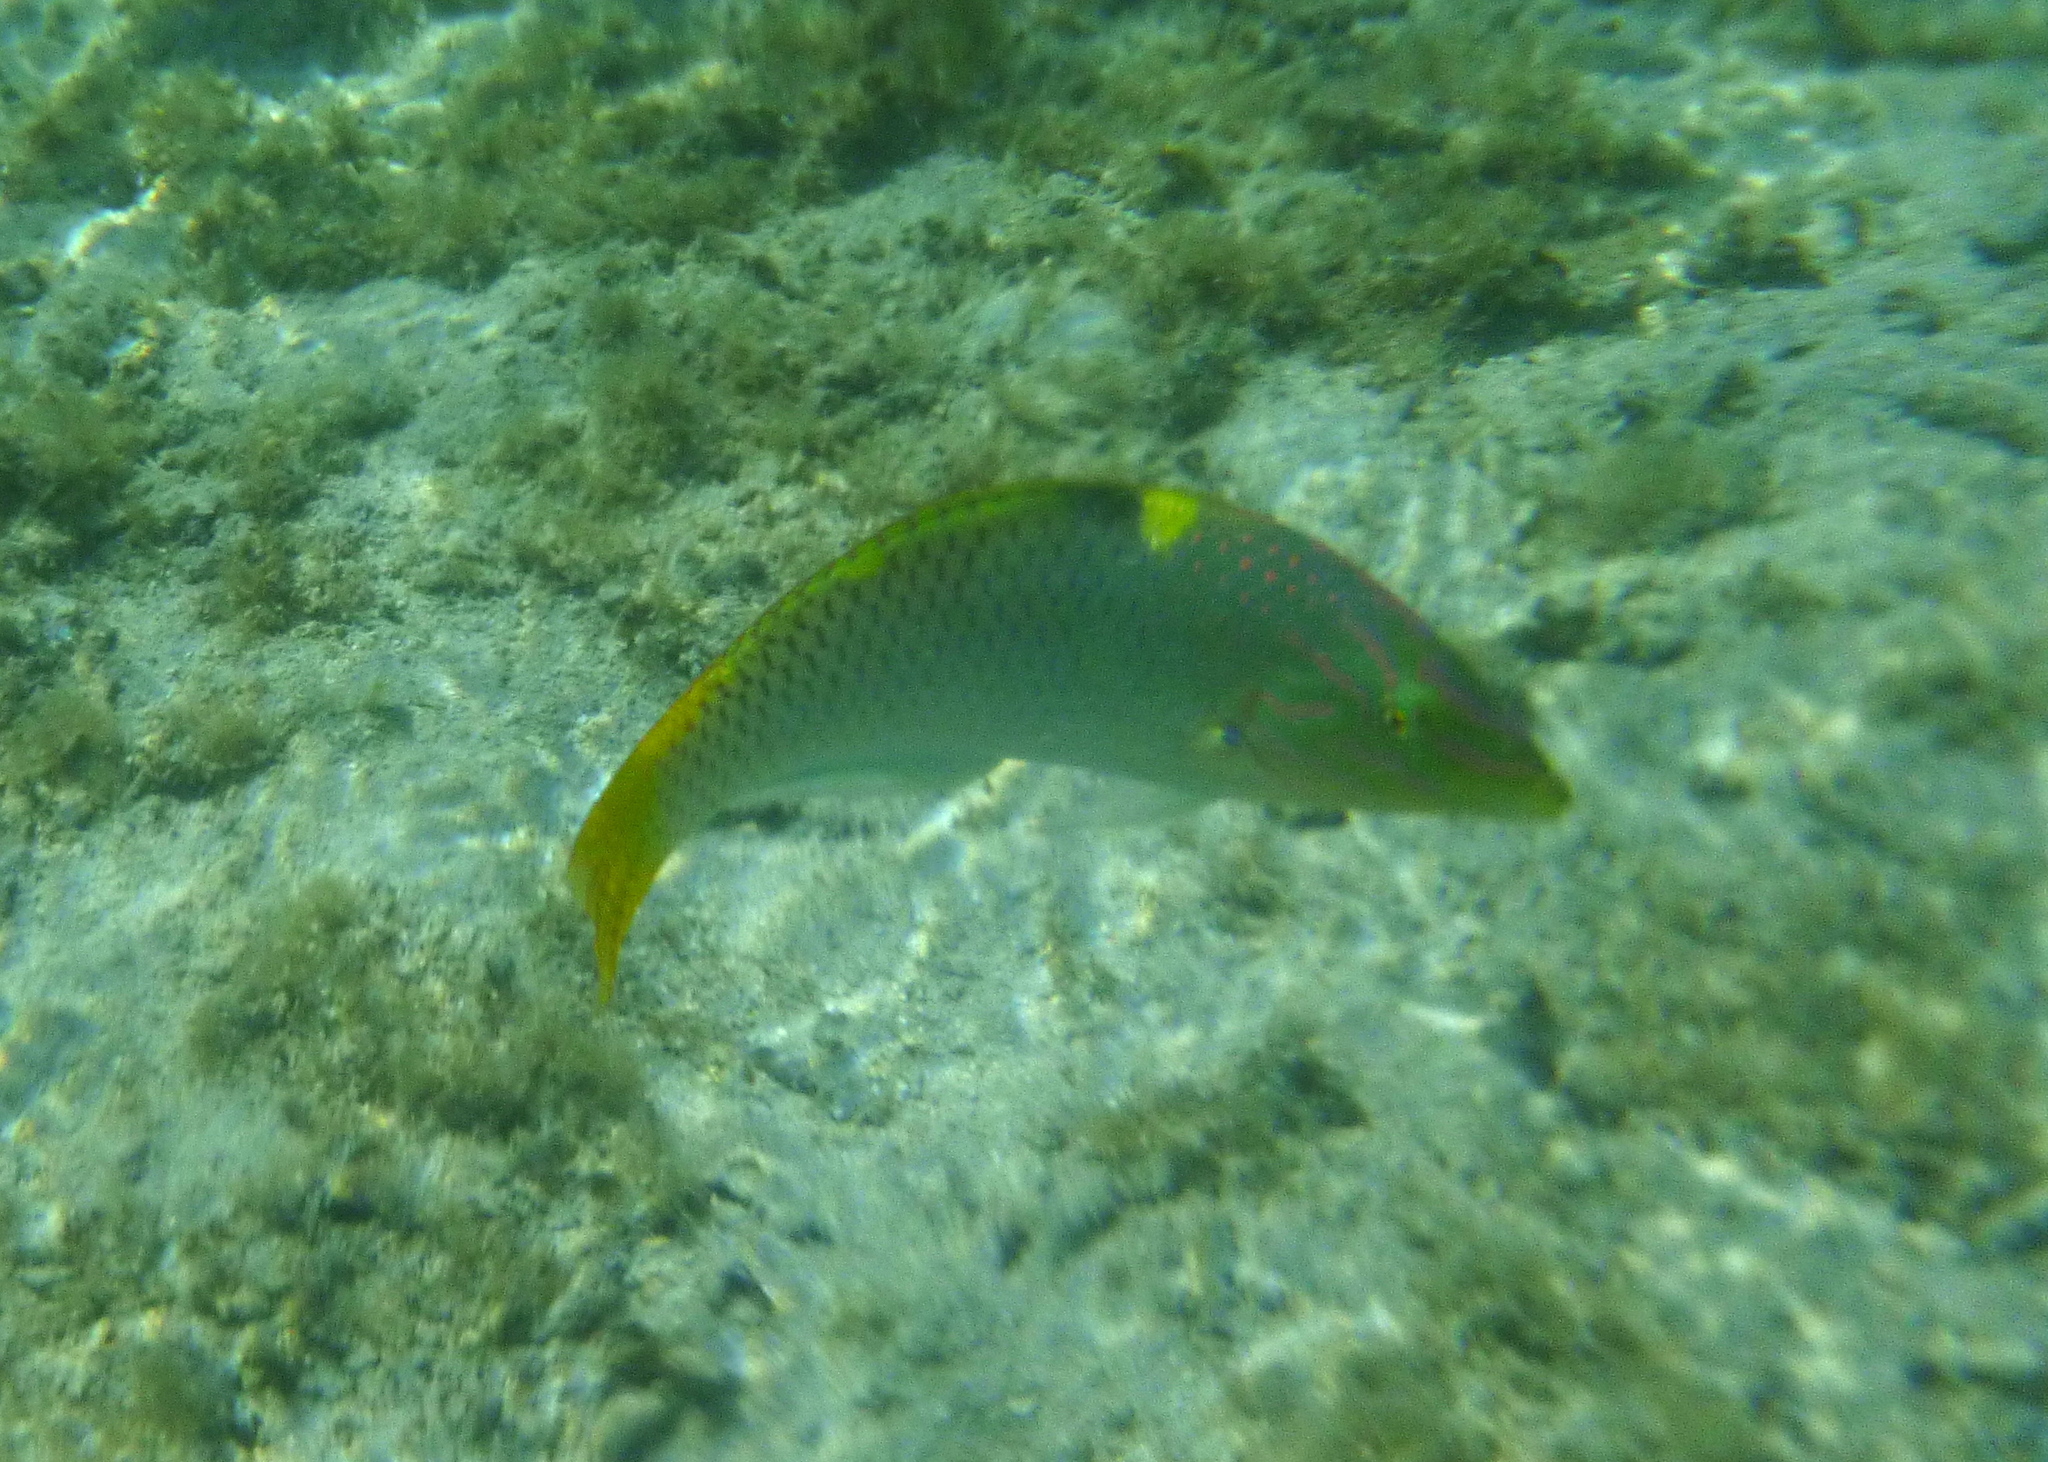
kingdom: Animalia
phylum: Chordata
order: Perciformes
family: Labridae
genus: Halichoeres
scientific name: Halichoeres hortulanus
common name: Checkerboard wrasse
